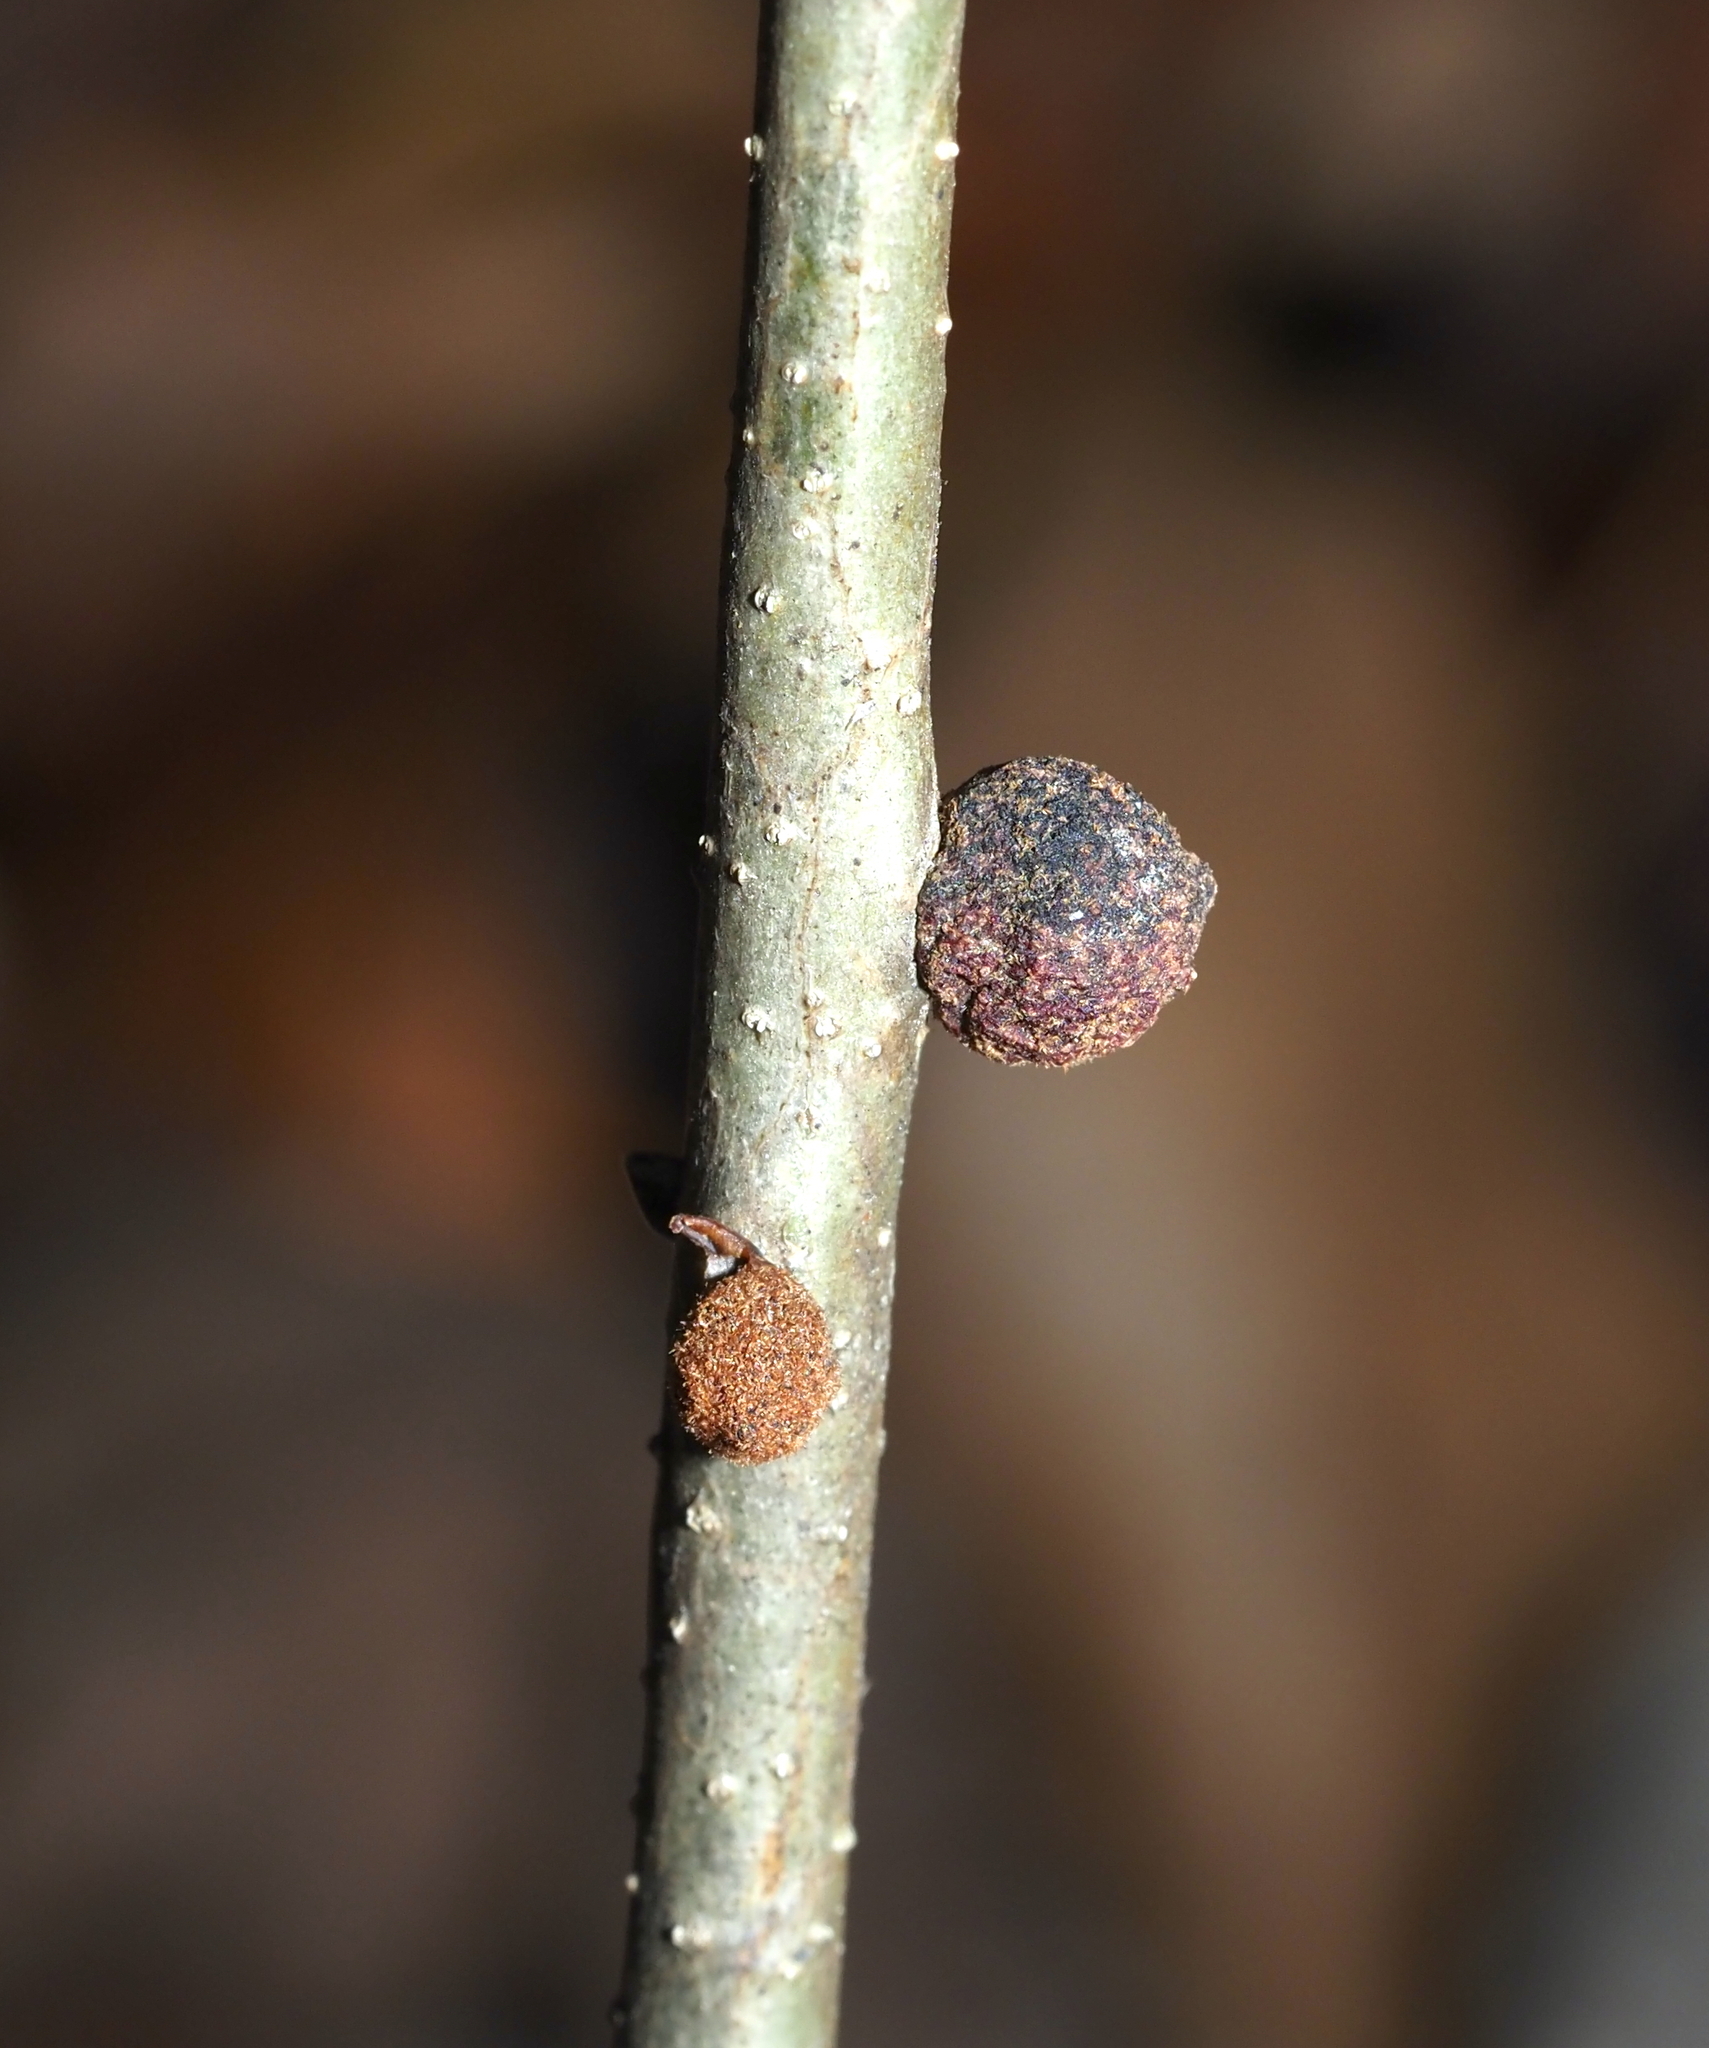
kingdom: Animalia
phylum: Arthropoda
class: Insecta
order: Hymenoptera
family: Cynipidae
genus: Disholcaspis
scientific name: Disholcaspis
